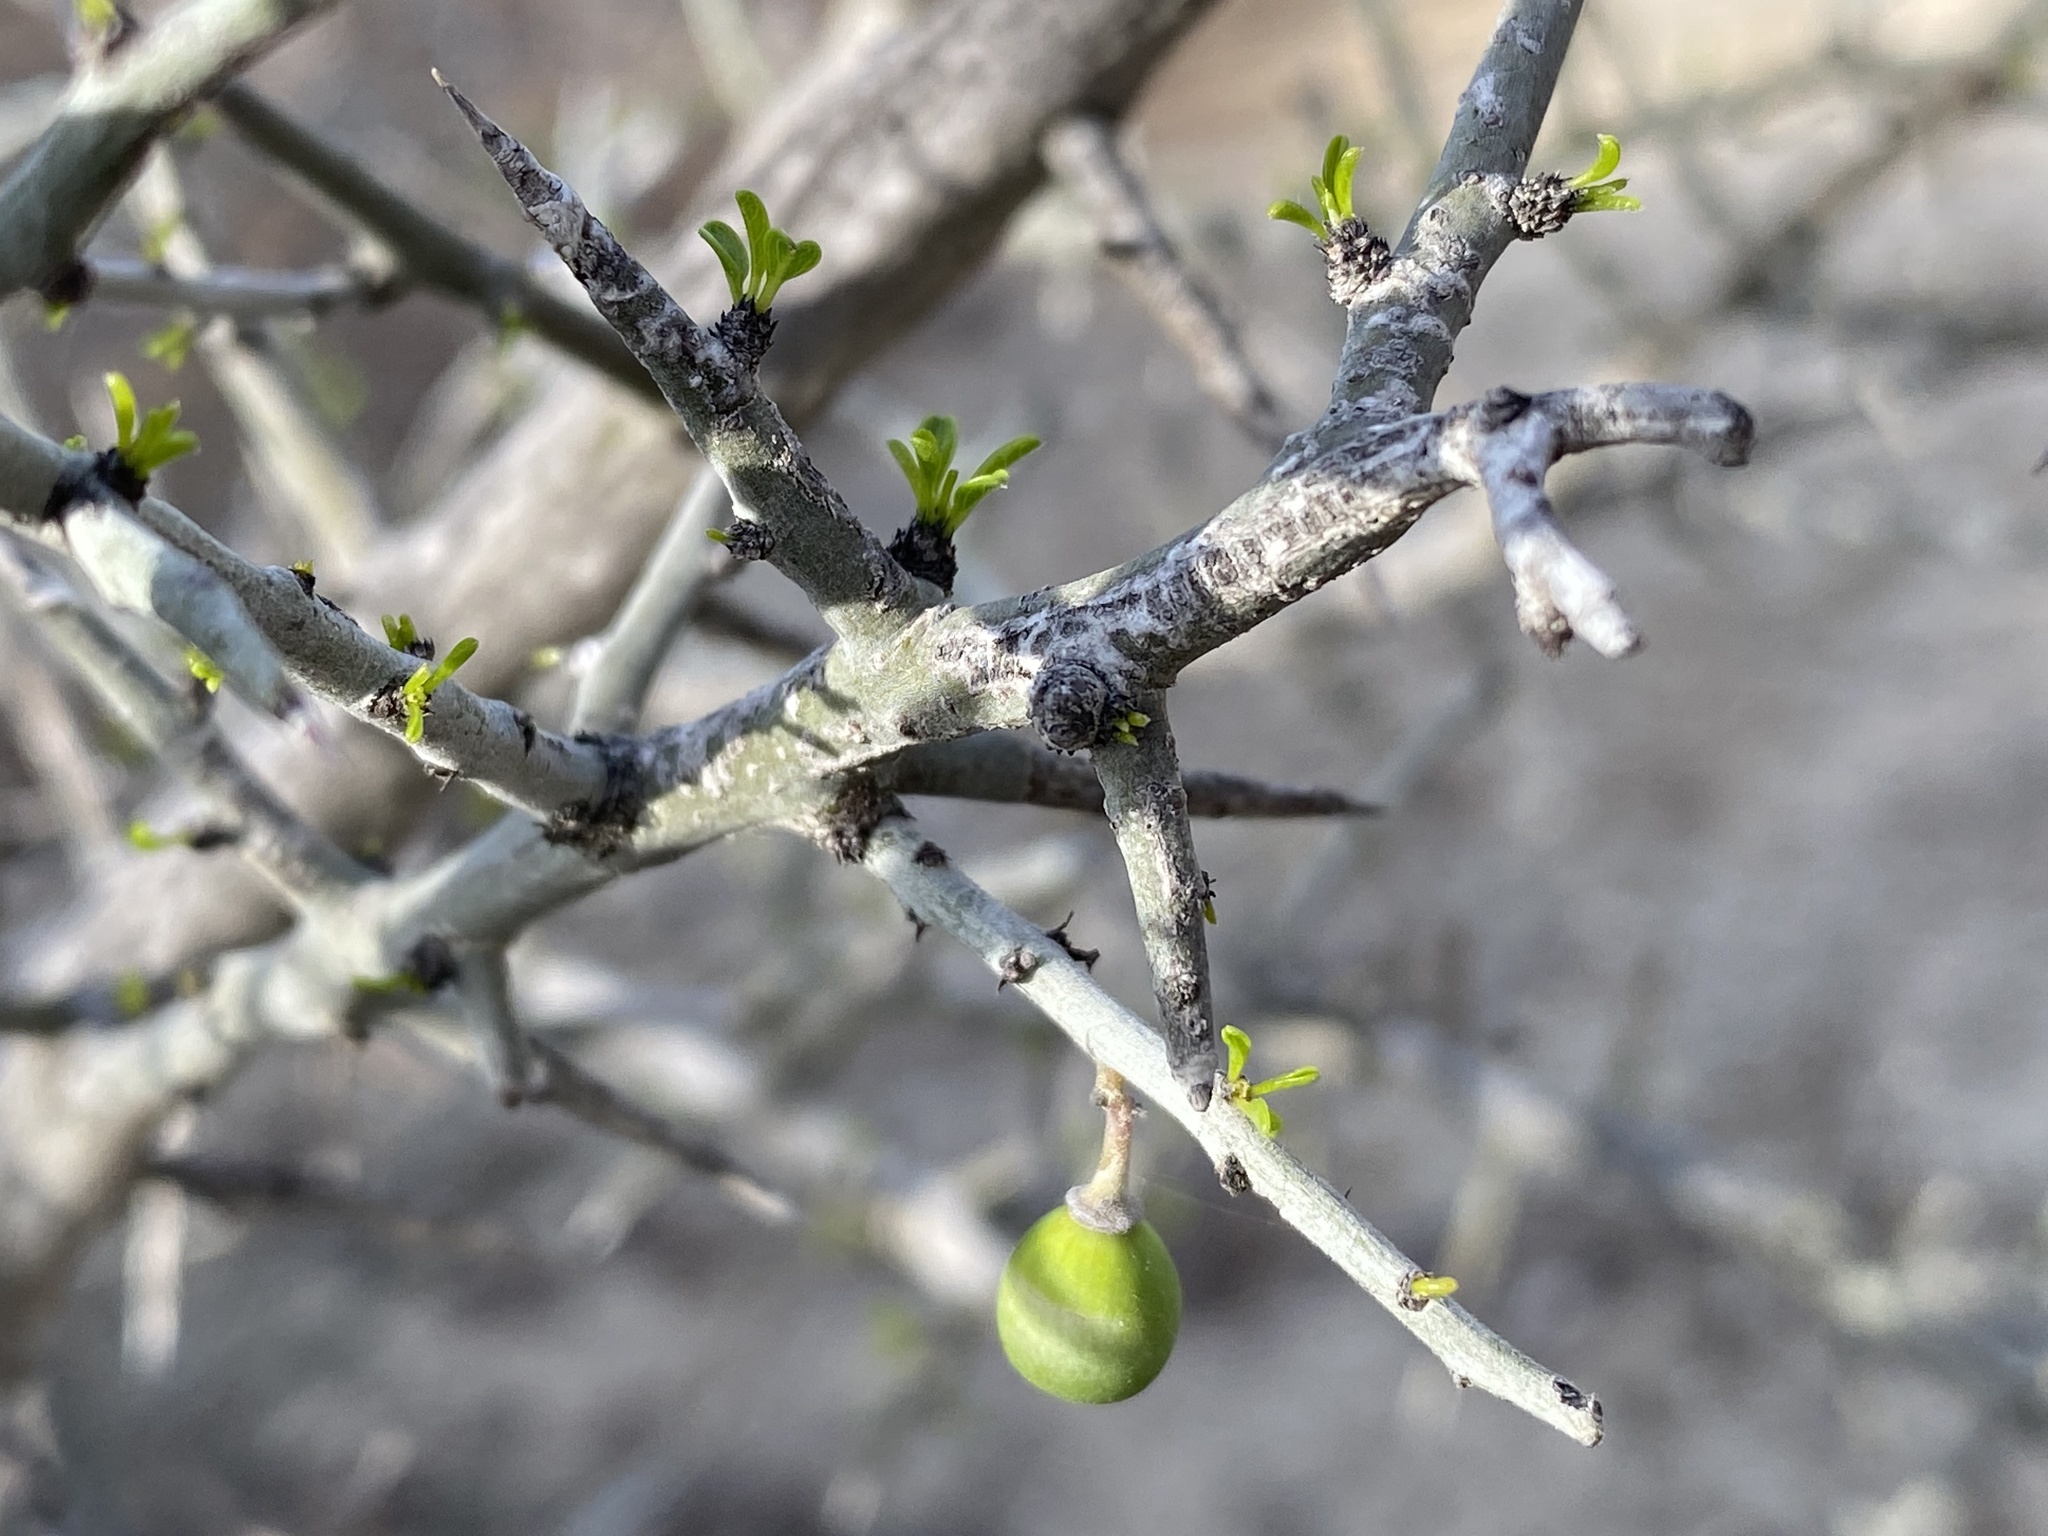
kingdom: Plantae
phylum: Tracheophyta
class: Magnoliopsida
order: Lamiales
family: Oleaceae
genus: Forestiera
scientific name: Forestiera angustifolia
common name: Elbowbush
